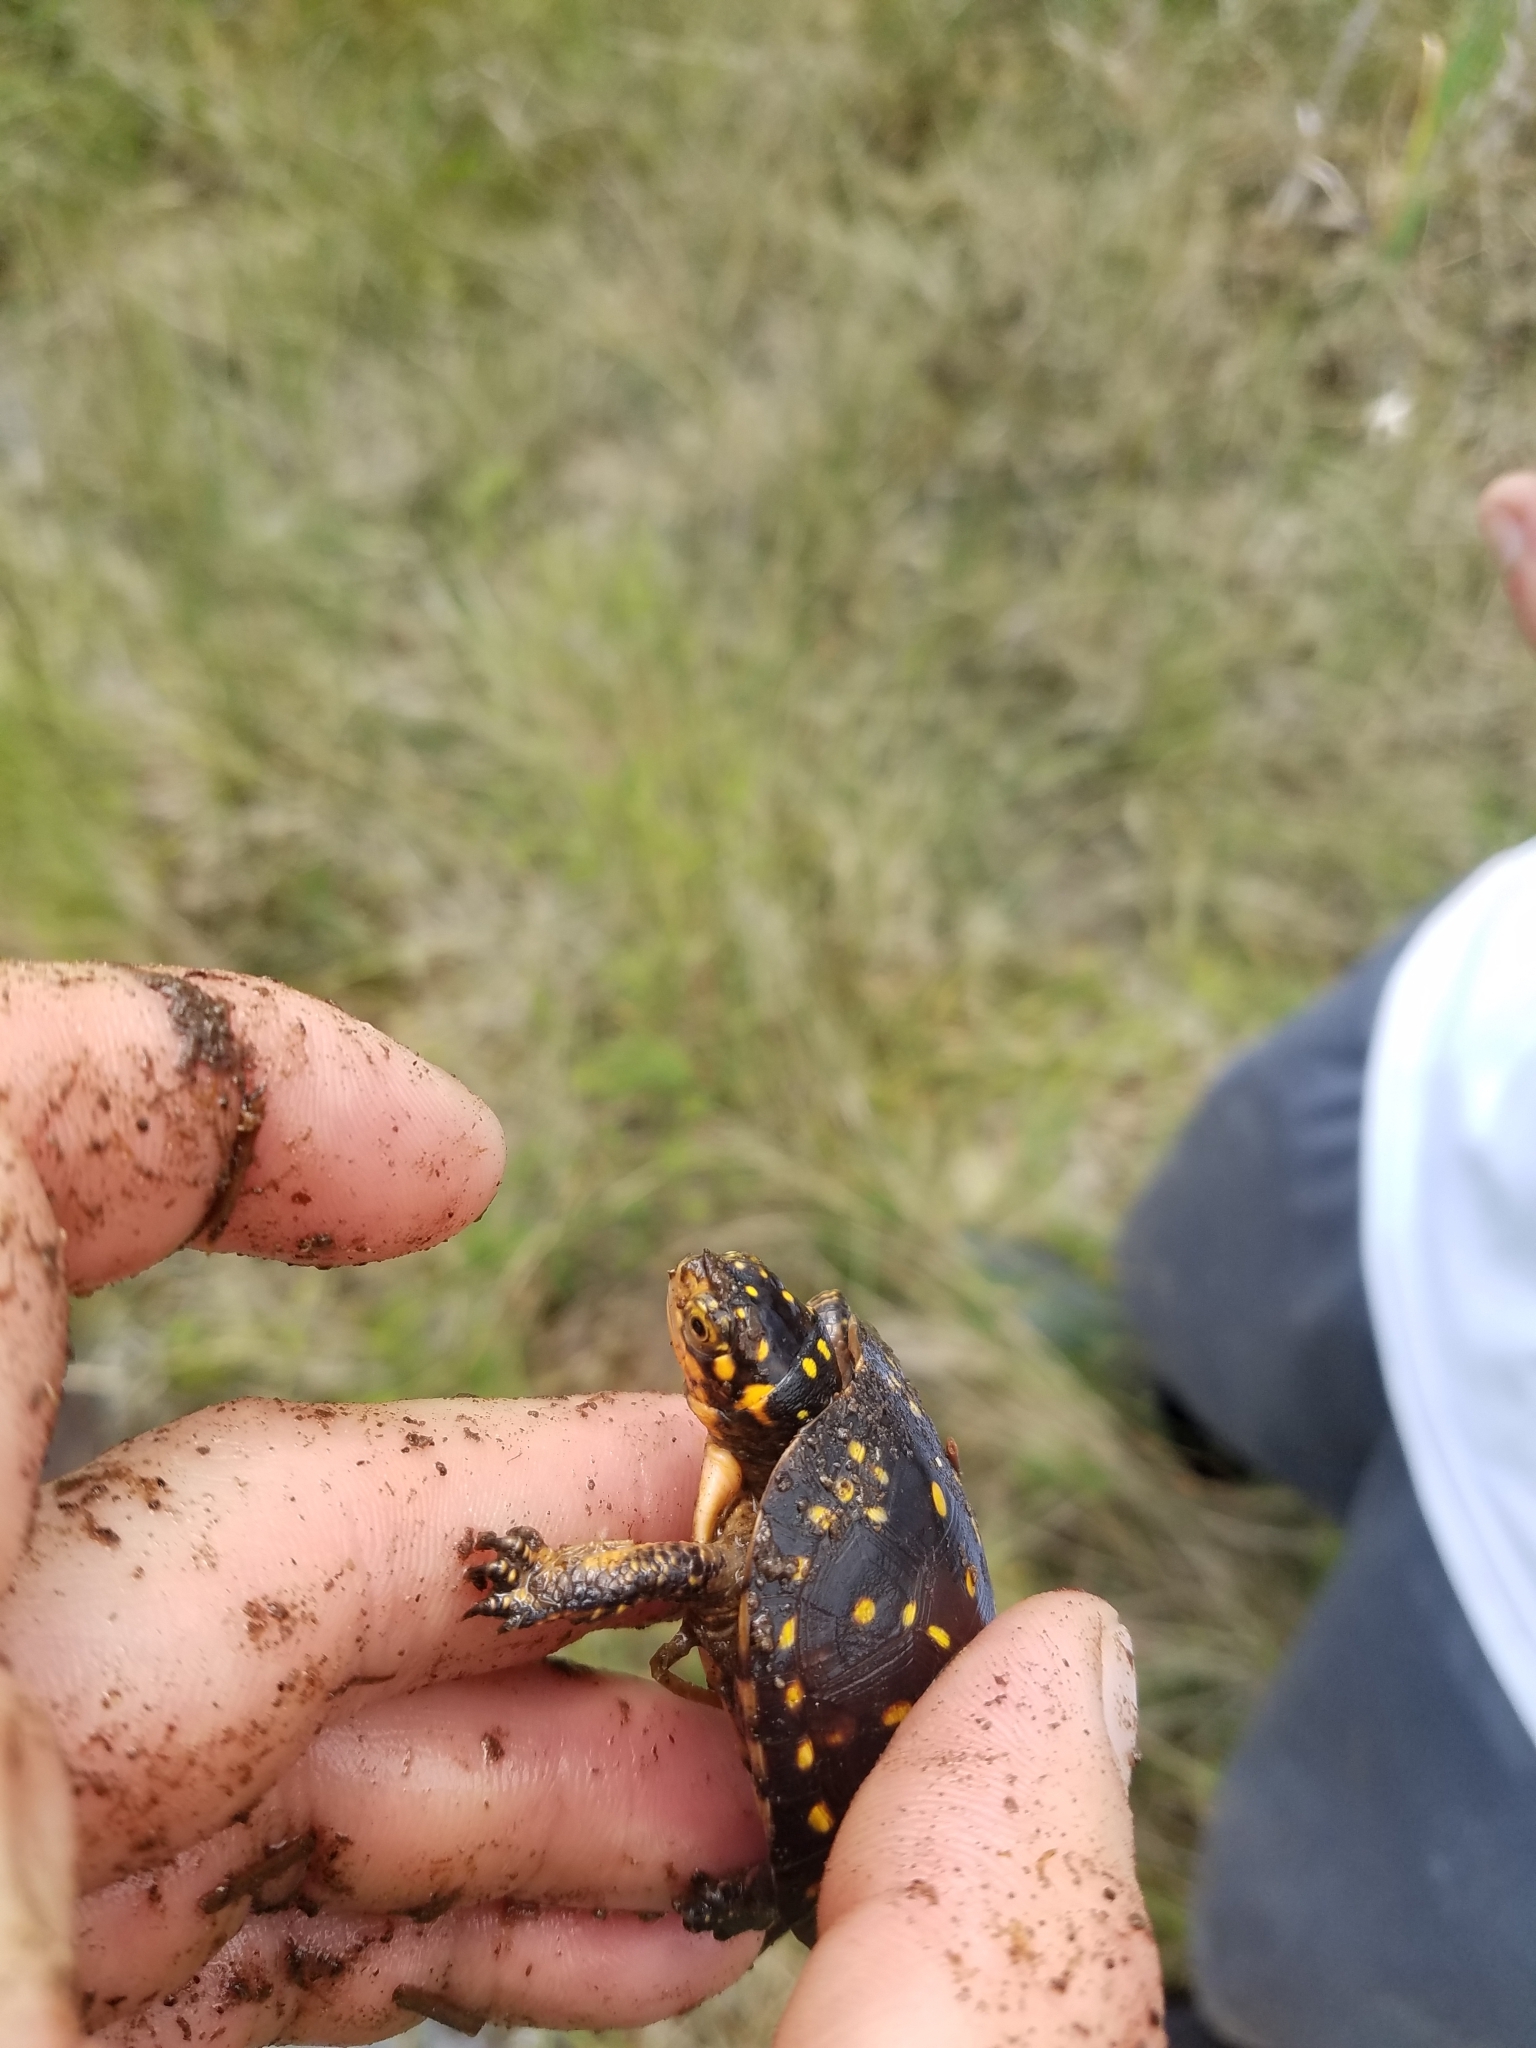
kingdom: Animalia
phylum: Chordata
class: Testudines
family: Emydidae
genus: Clemmys
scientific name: Clemmys guttata
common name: Spotted turtle
